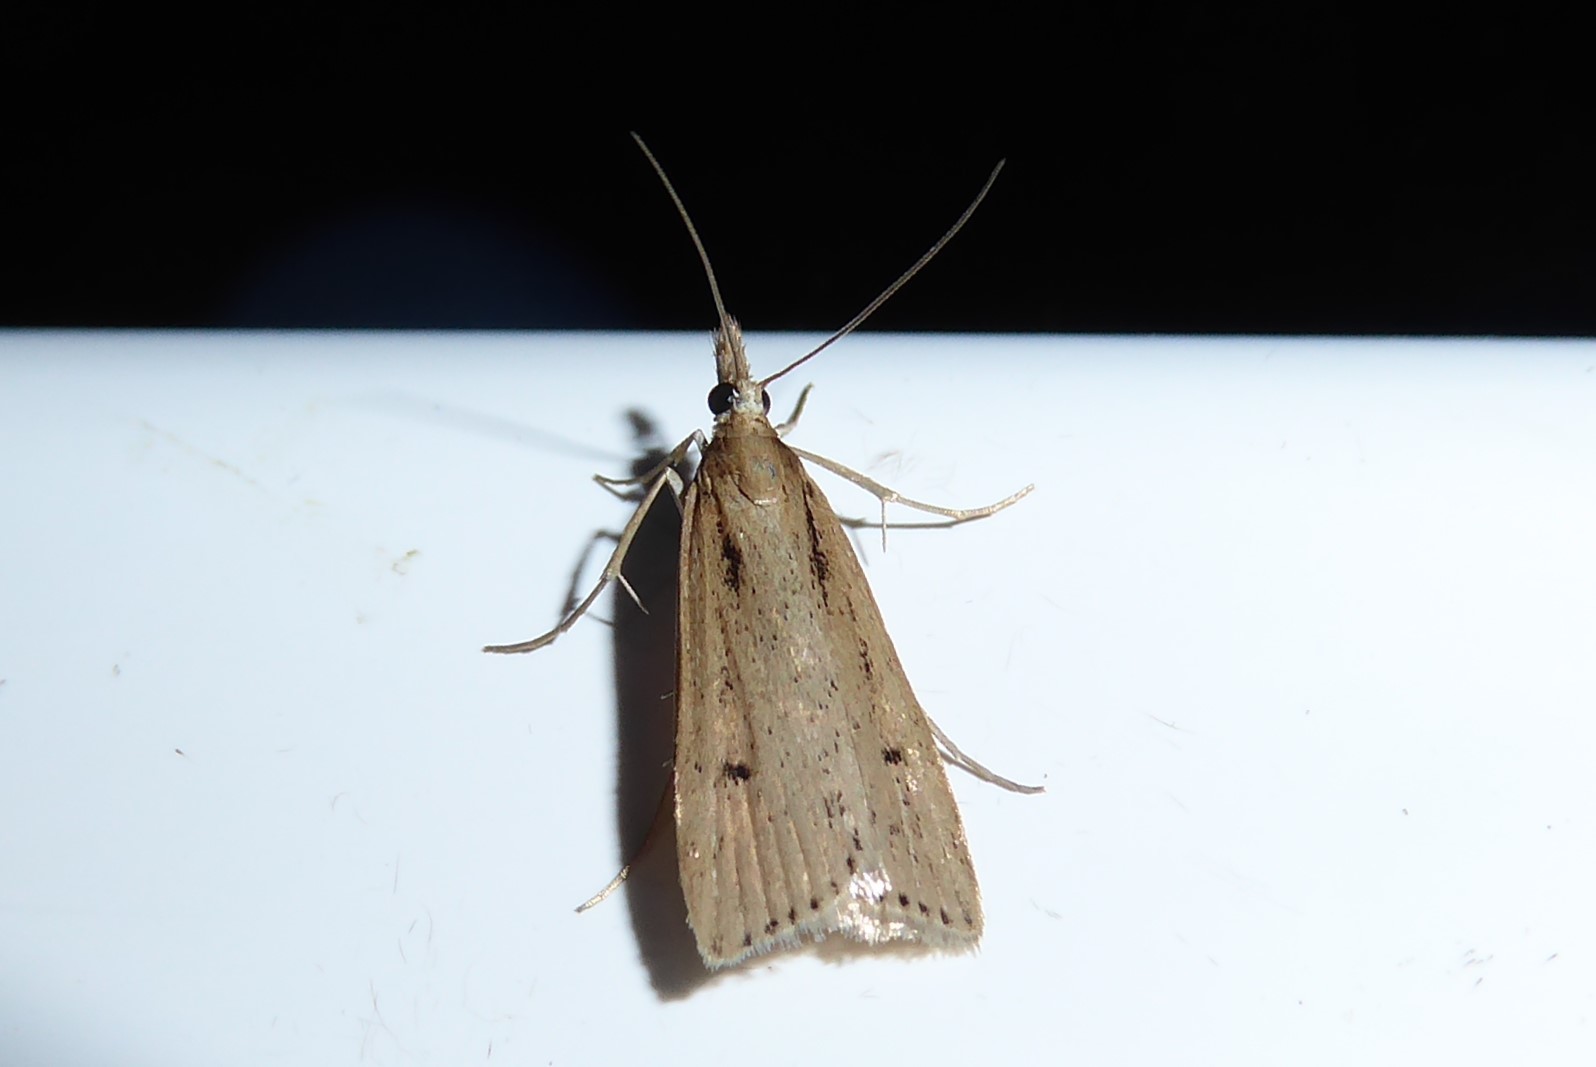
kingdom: Animalia
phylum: Arthropoda
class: Insecta
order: Lepidoptera
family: Crambidae
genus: Eudonia
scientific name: Eudonia sabulosella
